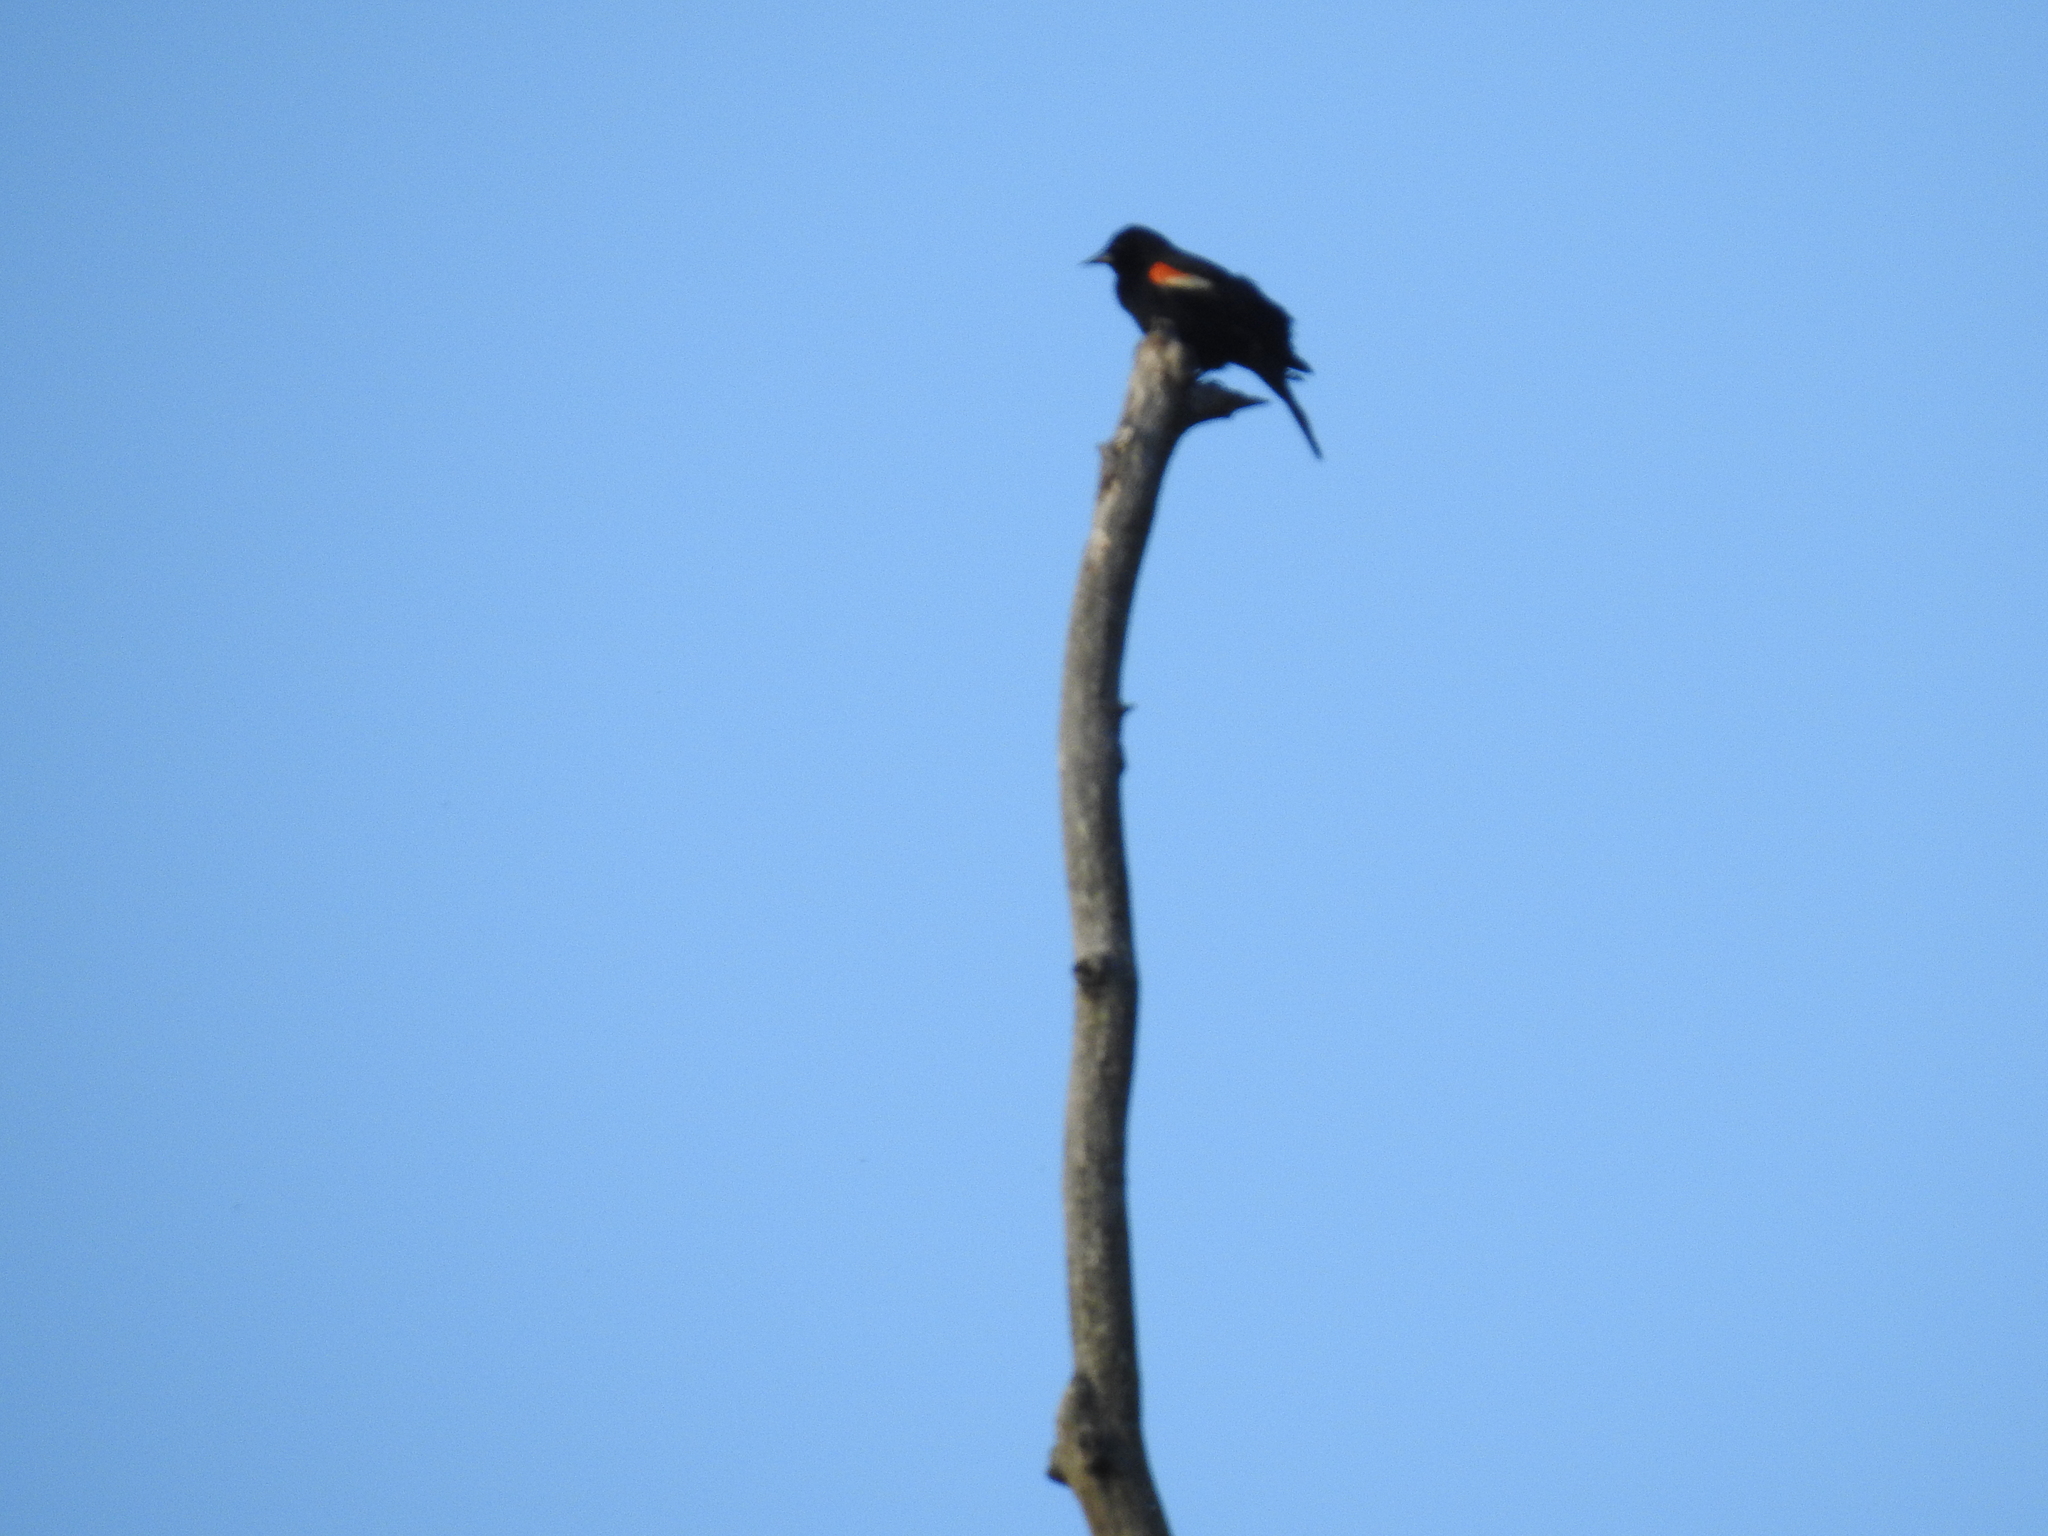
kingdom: Animalia
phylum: Chordata
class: Aves
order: Passeriformes
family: Icteridae
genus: Agelaius
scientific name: Agelaius phoeniceus
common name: Red-winged blackbird
